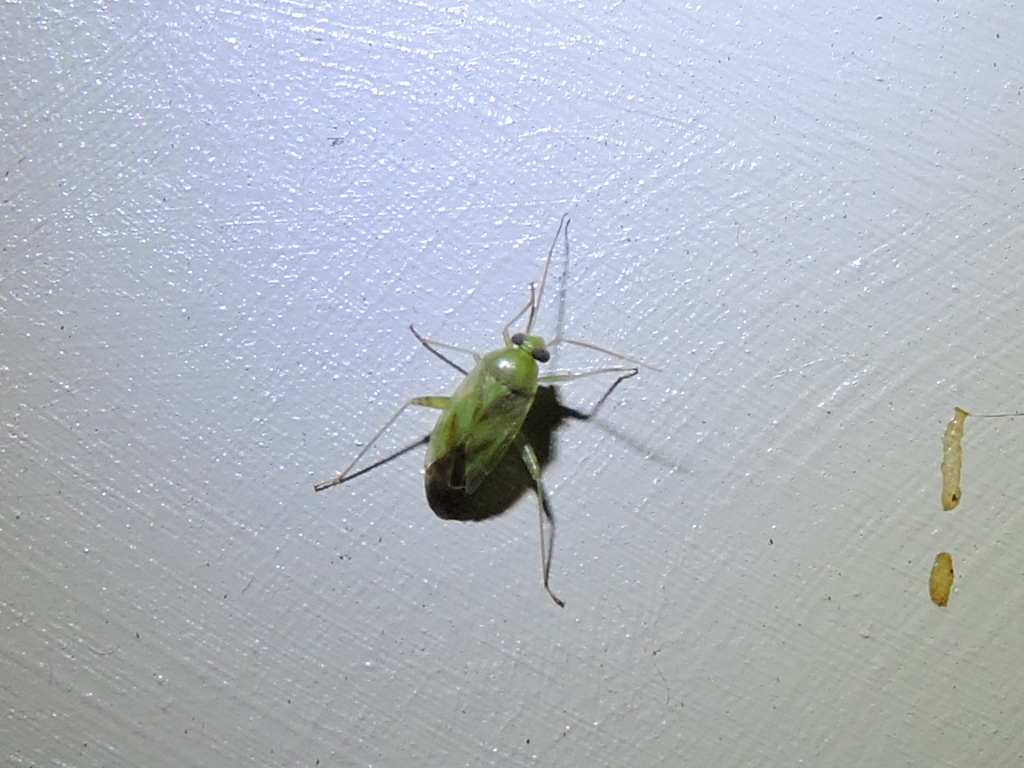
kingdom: Animalia
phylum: Arthropoda
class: Insecta
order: Hemiptera
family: Miridae
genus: Taylorilygus
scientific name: Taylorilygus apicalis
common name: Plant bug
